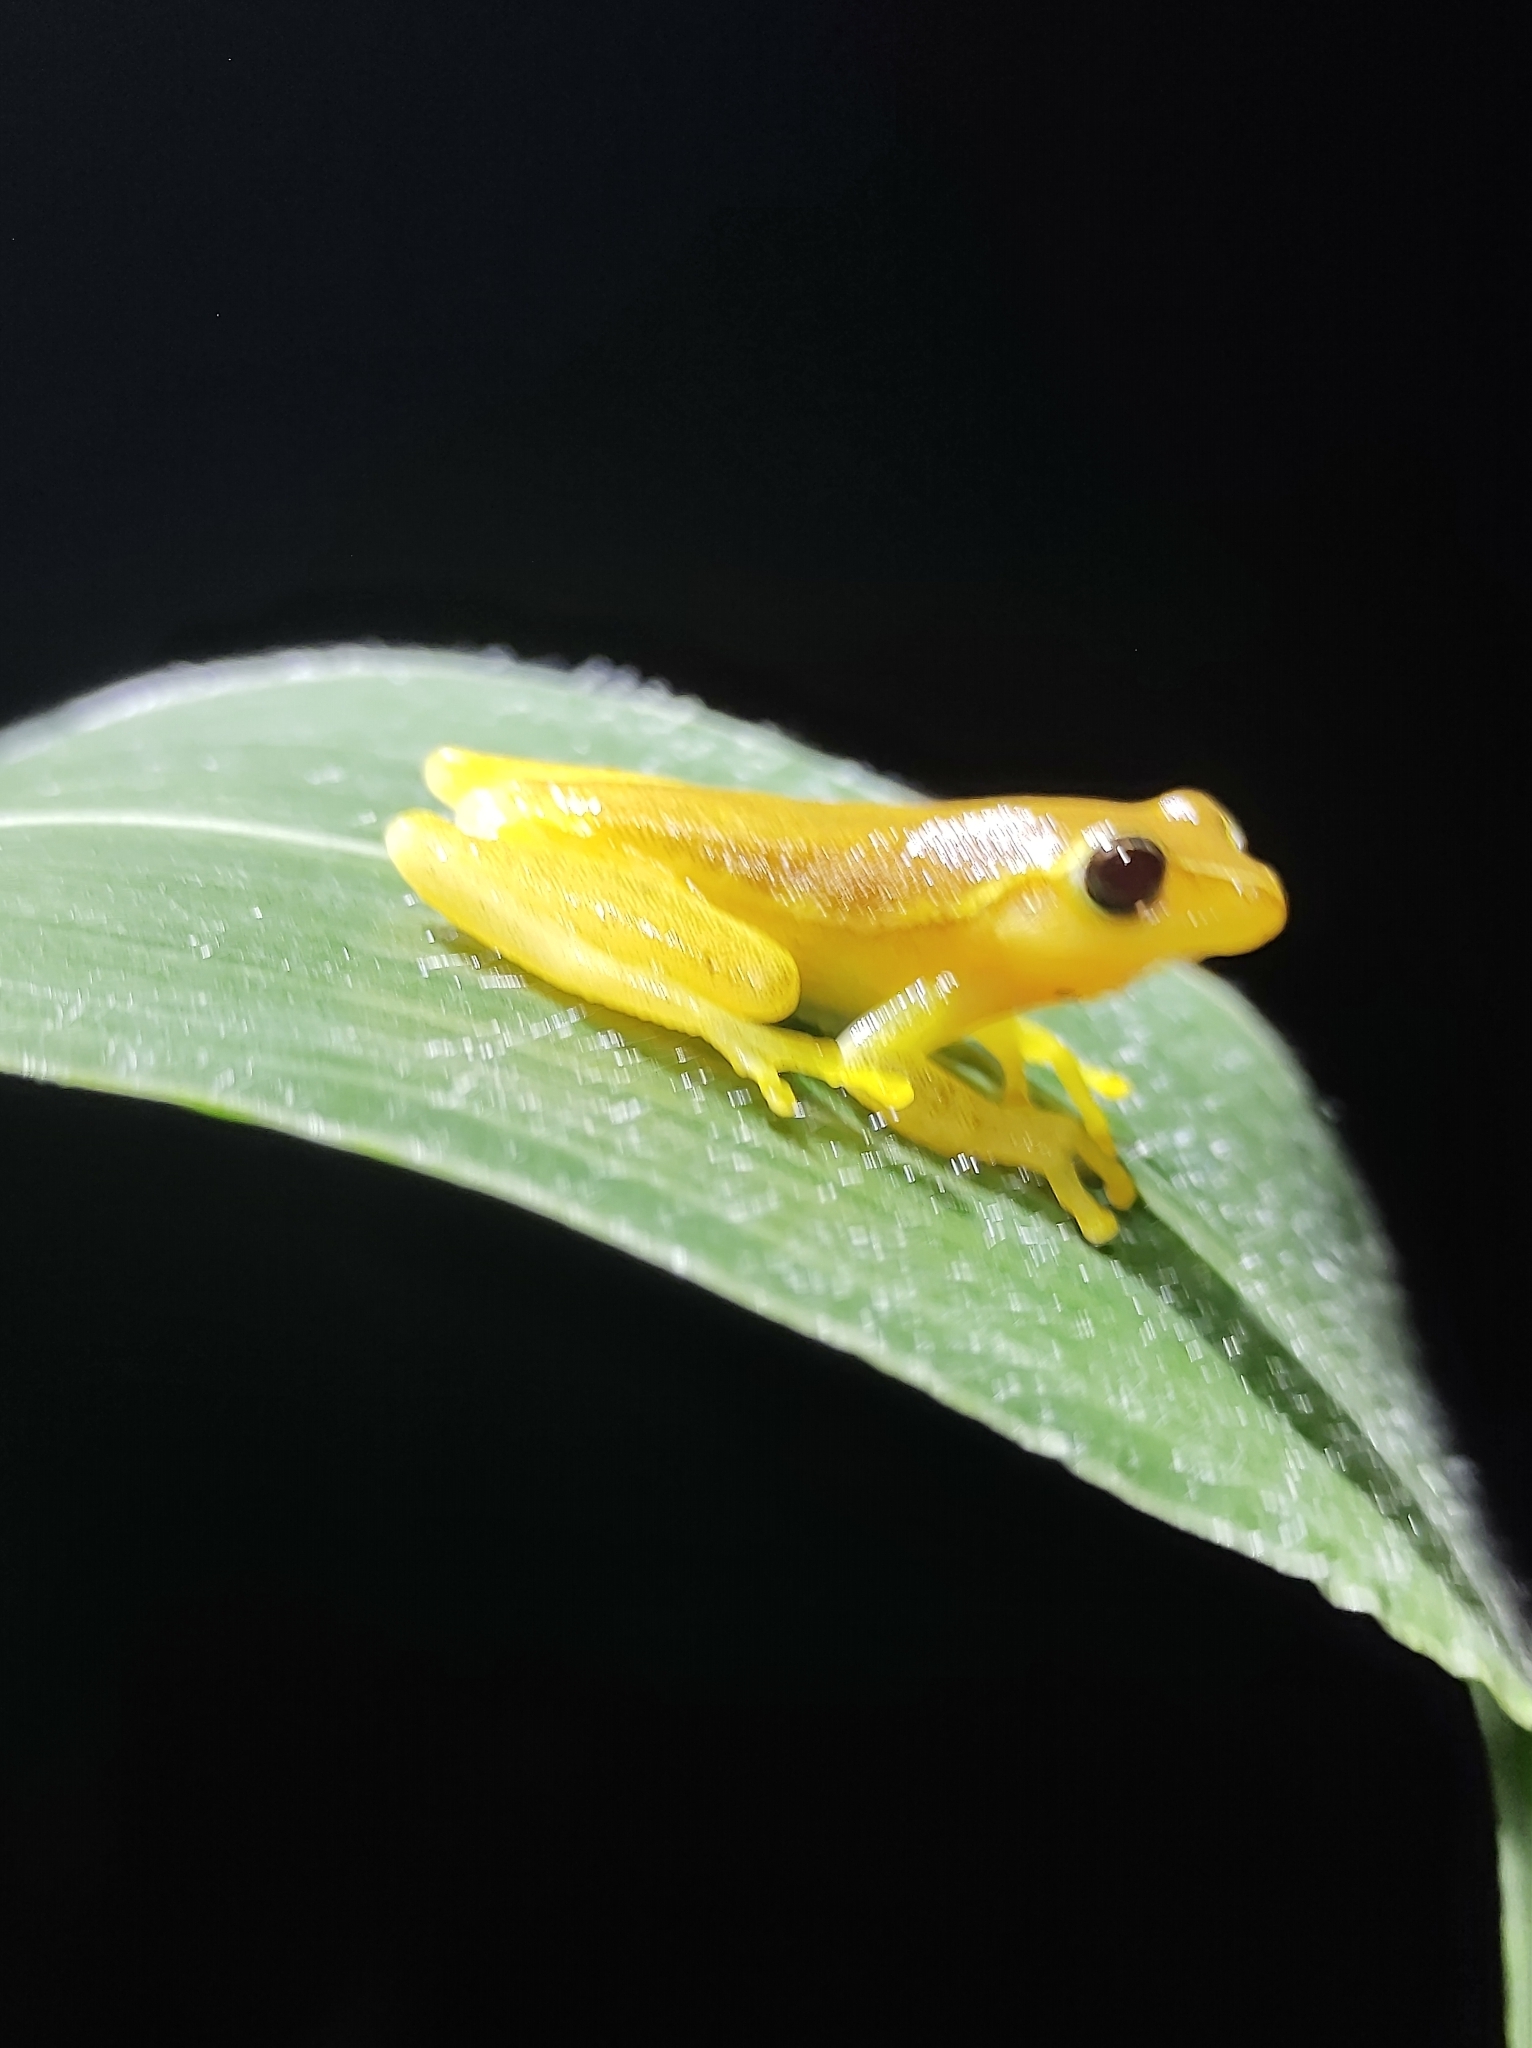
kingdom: Animalia
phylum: Chordata
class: Amphibia
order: Anura
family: Hylidae
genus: Tlalocohyla
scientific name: Tlalocohyla smithii
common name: Dwarf mexican treefrog
